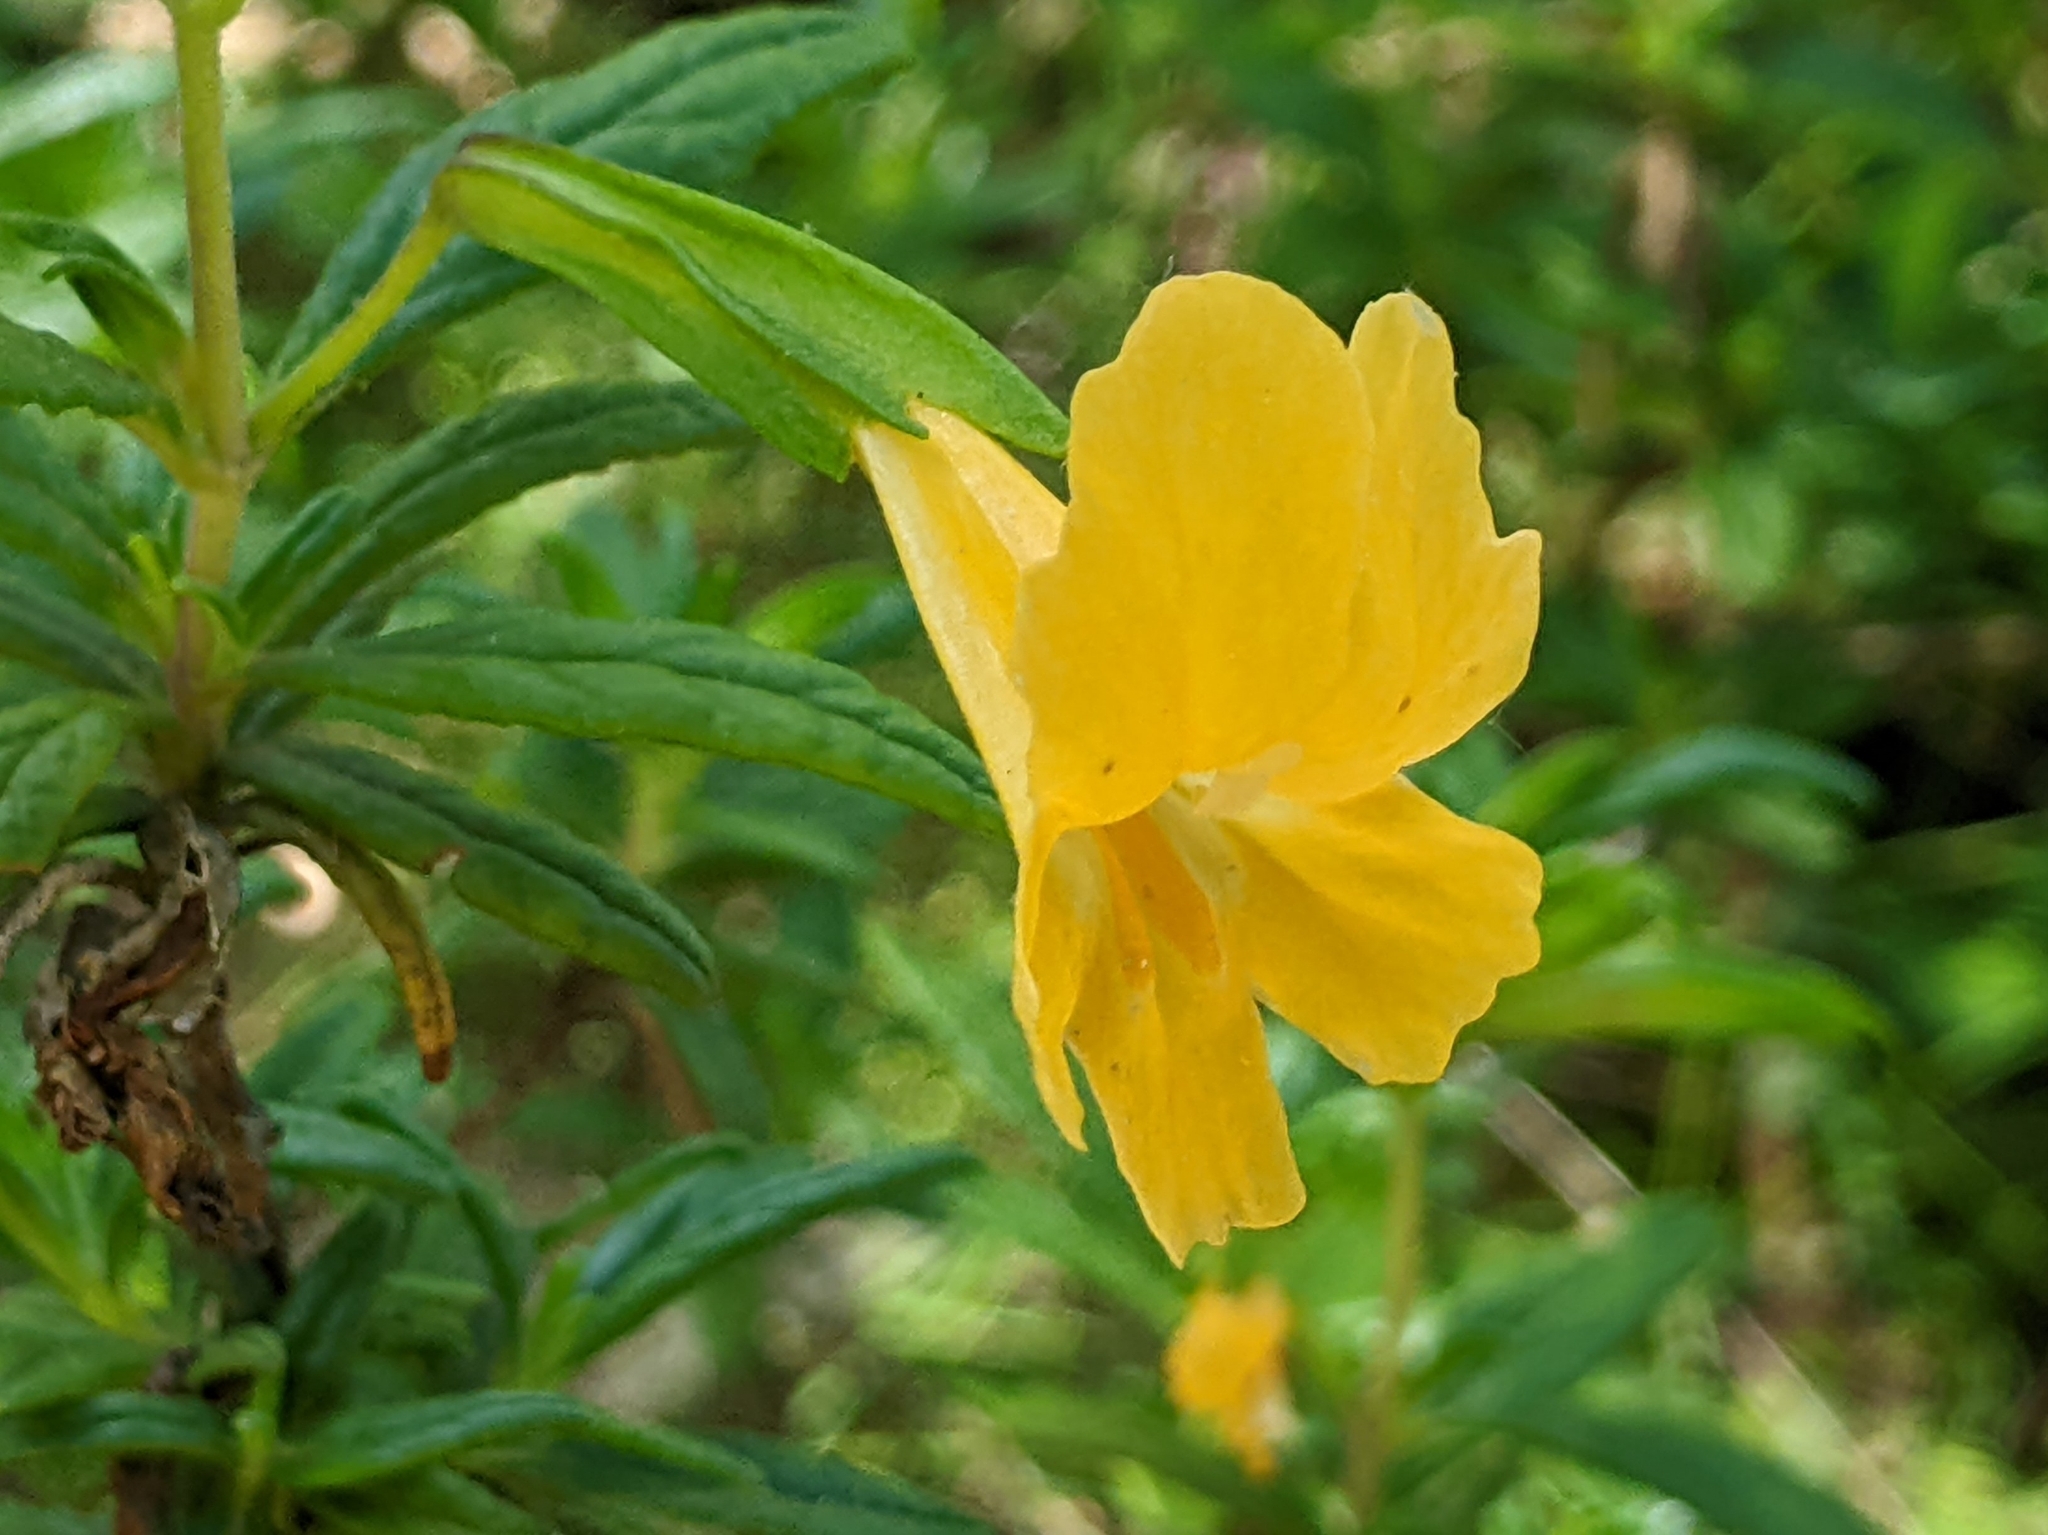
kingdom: Plantae
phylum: Tracheophyta
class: Magnoliopsida
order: Lamiales
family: Phrymaceae
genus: Diplacus
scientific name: Diplacus aurantiacus
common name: Bush monkey-flower
